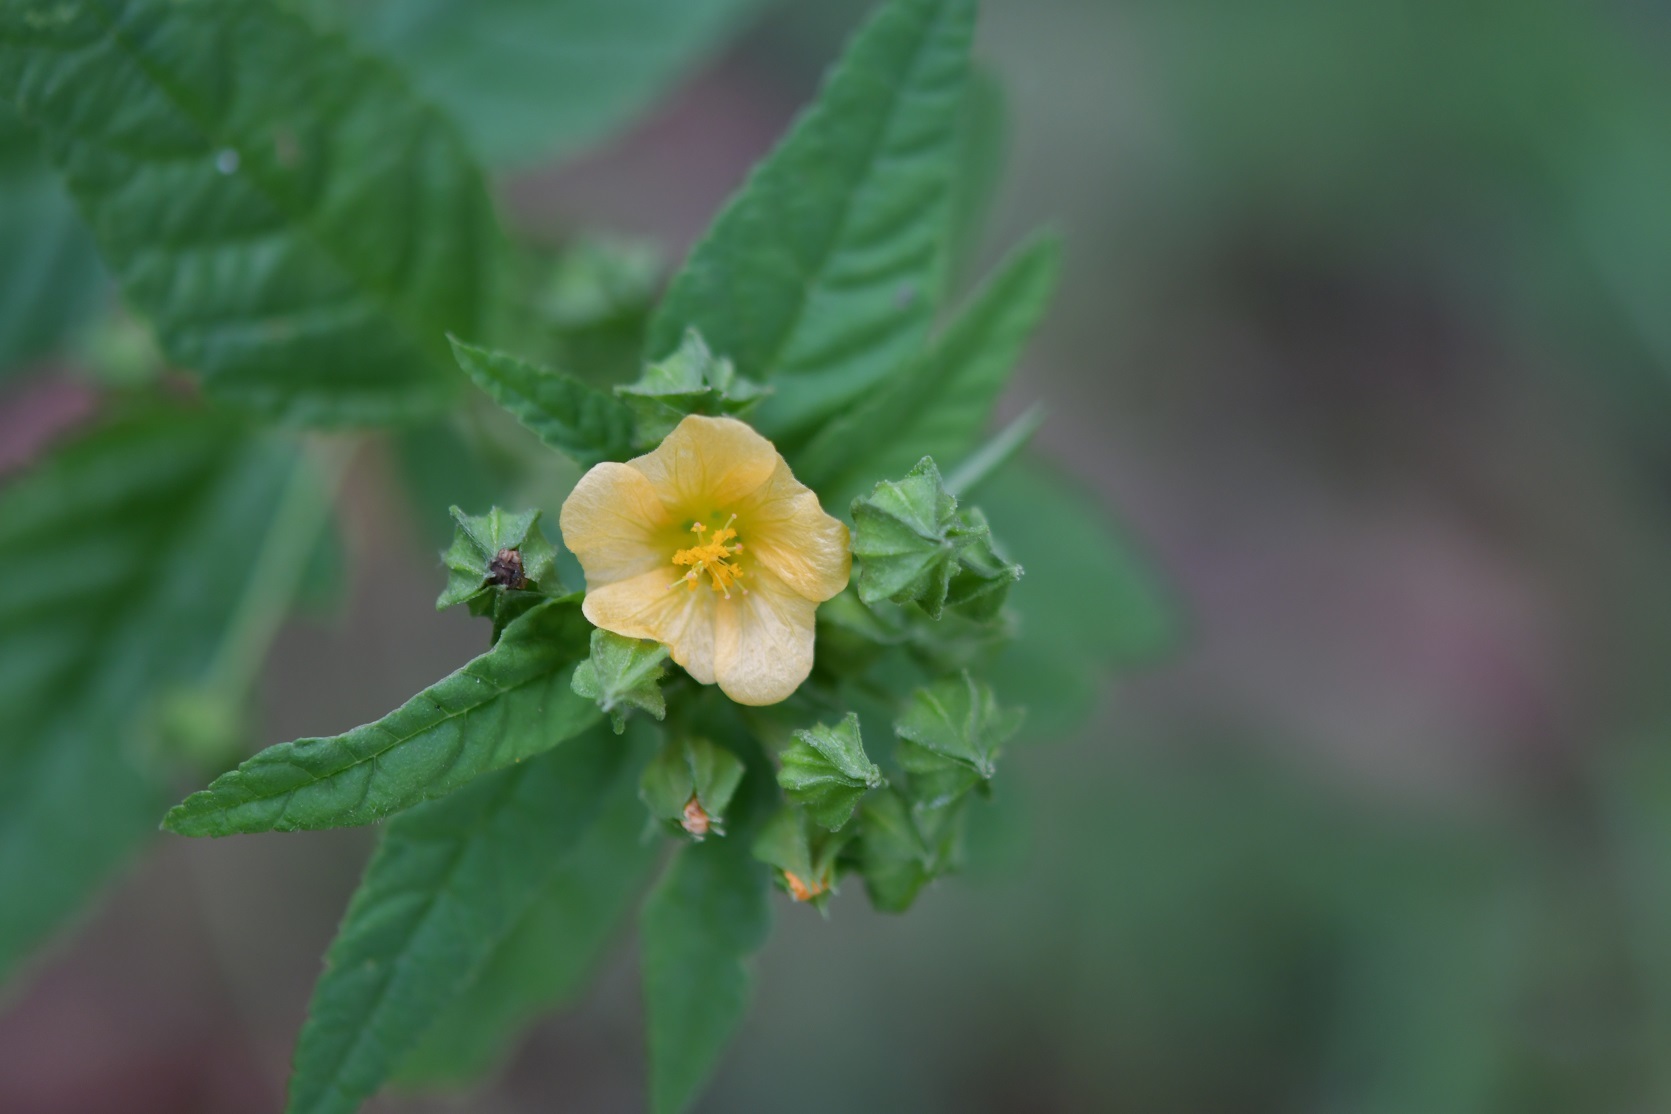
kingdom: Plantae
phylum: Tracheophyta
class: Magnoliopsida
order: Malvales
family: Malvaceae
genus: Sida
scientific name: Sida acuta
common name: Common wireweed
